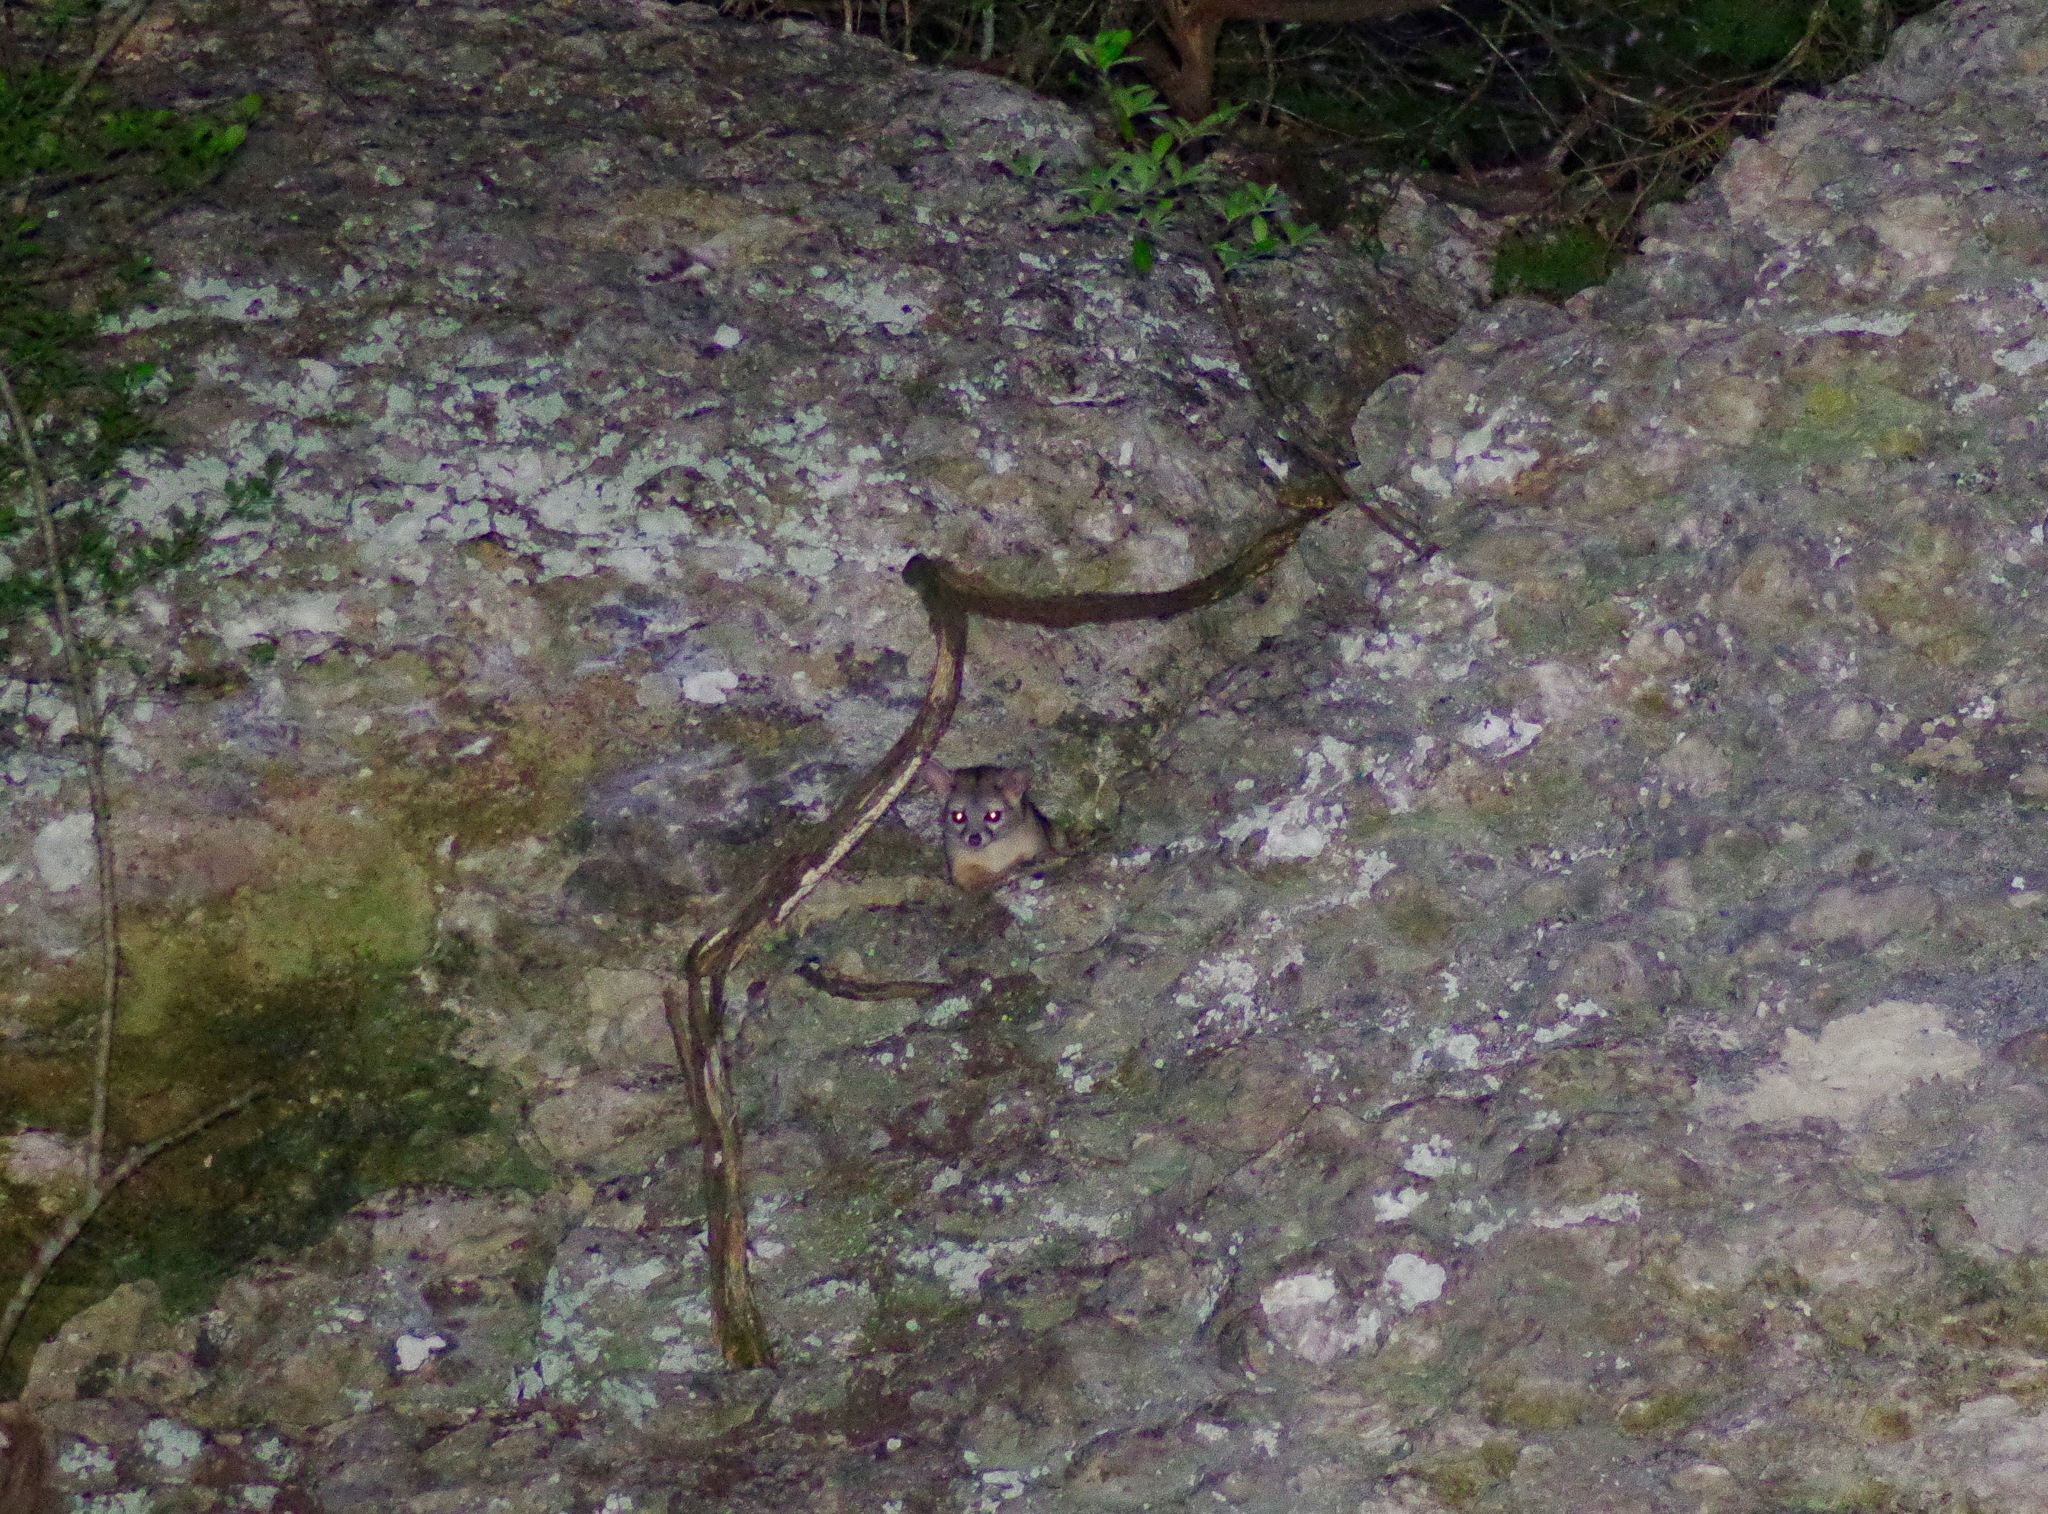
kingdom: Animalia
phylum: Chordata
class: Mammalia
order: Carnivora
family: Procyonidae
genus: Bassariscus
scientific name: Bassariscus astutus
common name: Ringtail
